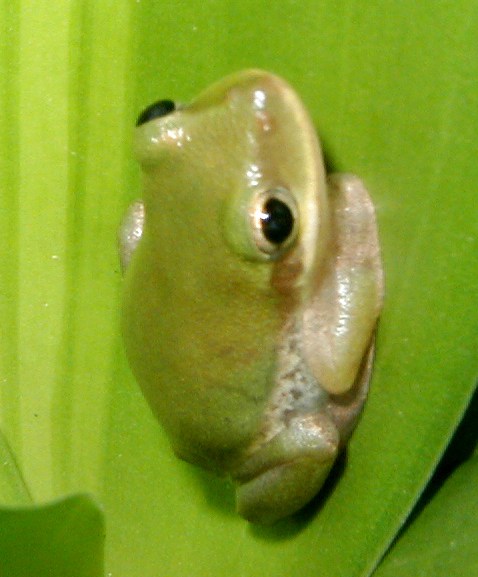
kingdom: Animalia
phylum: Chordata
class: Amphibia
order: Anura
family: Hylidae
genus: Dryophytes
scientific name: Dryophytes squirellus
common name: Squirrel treefrog
